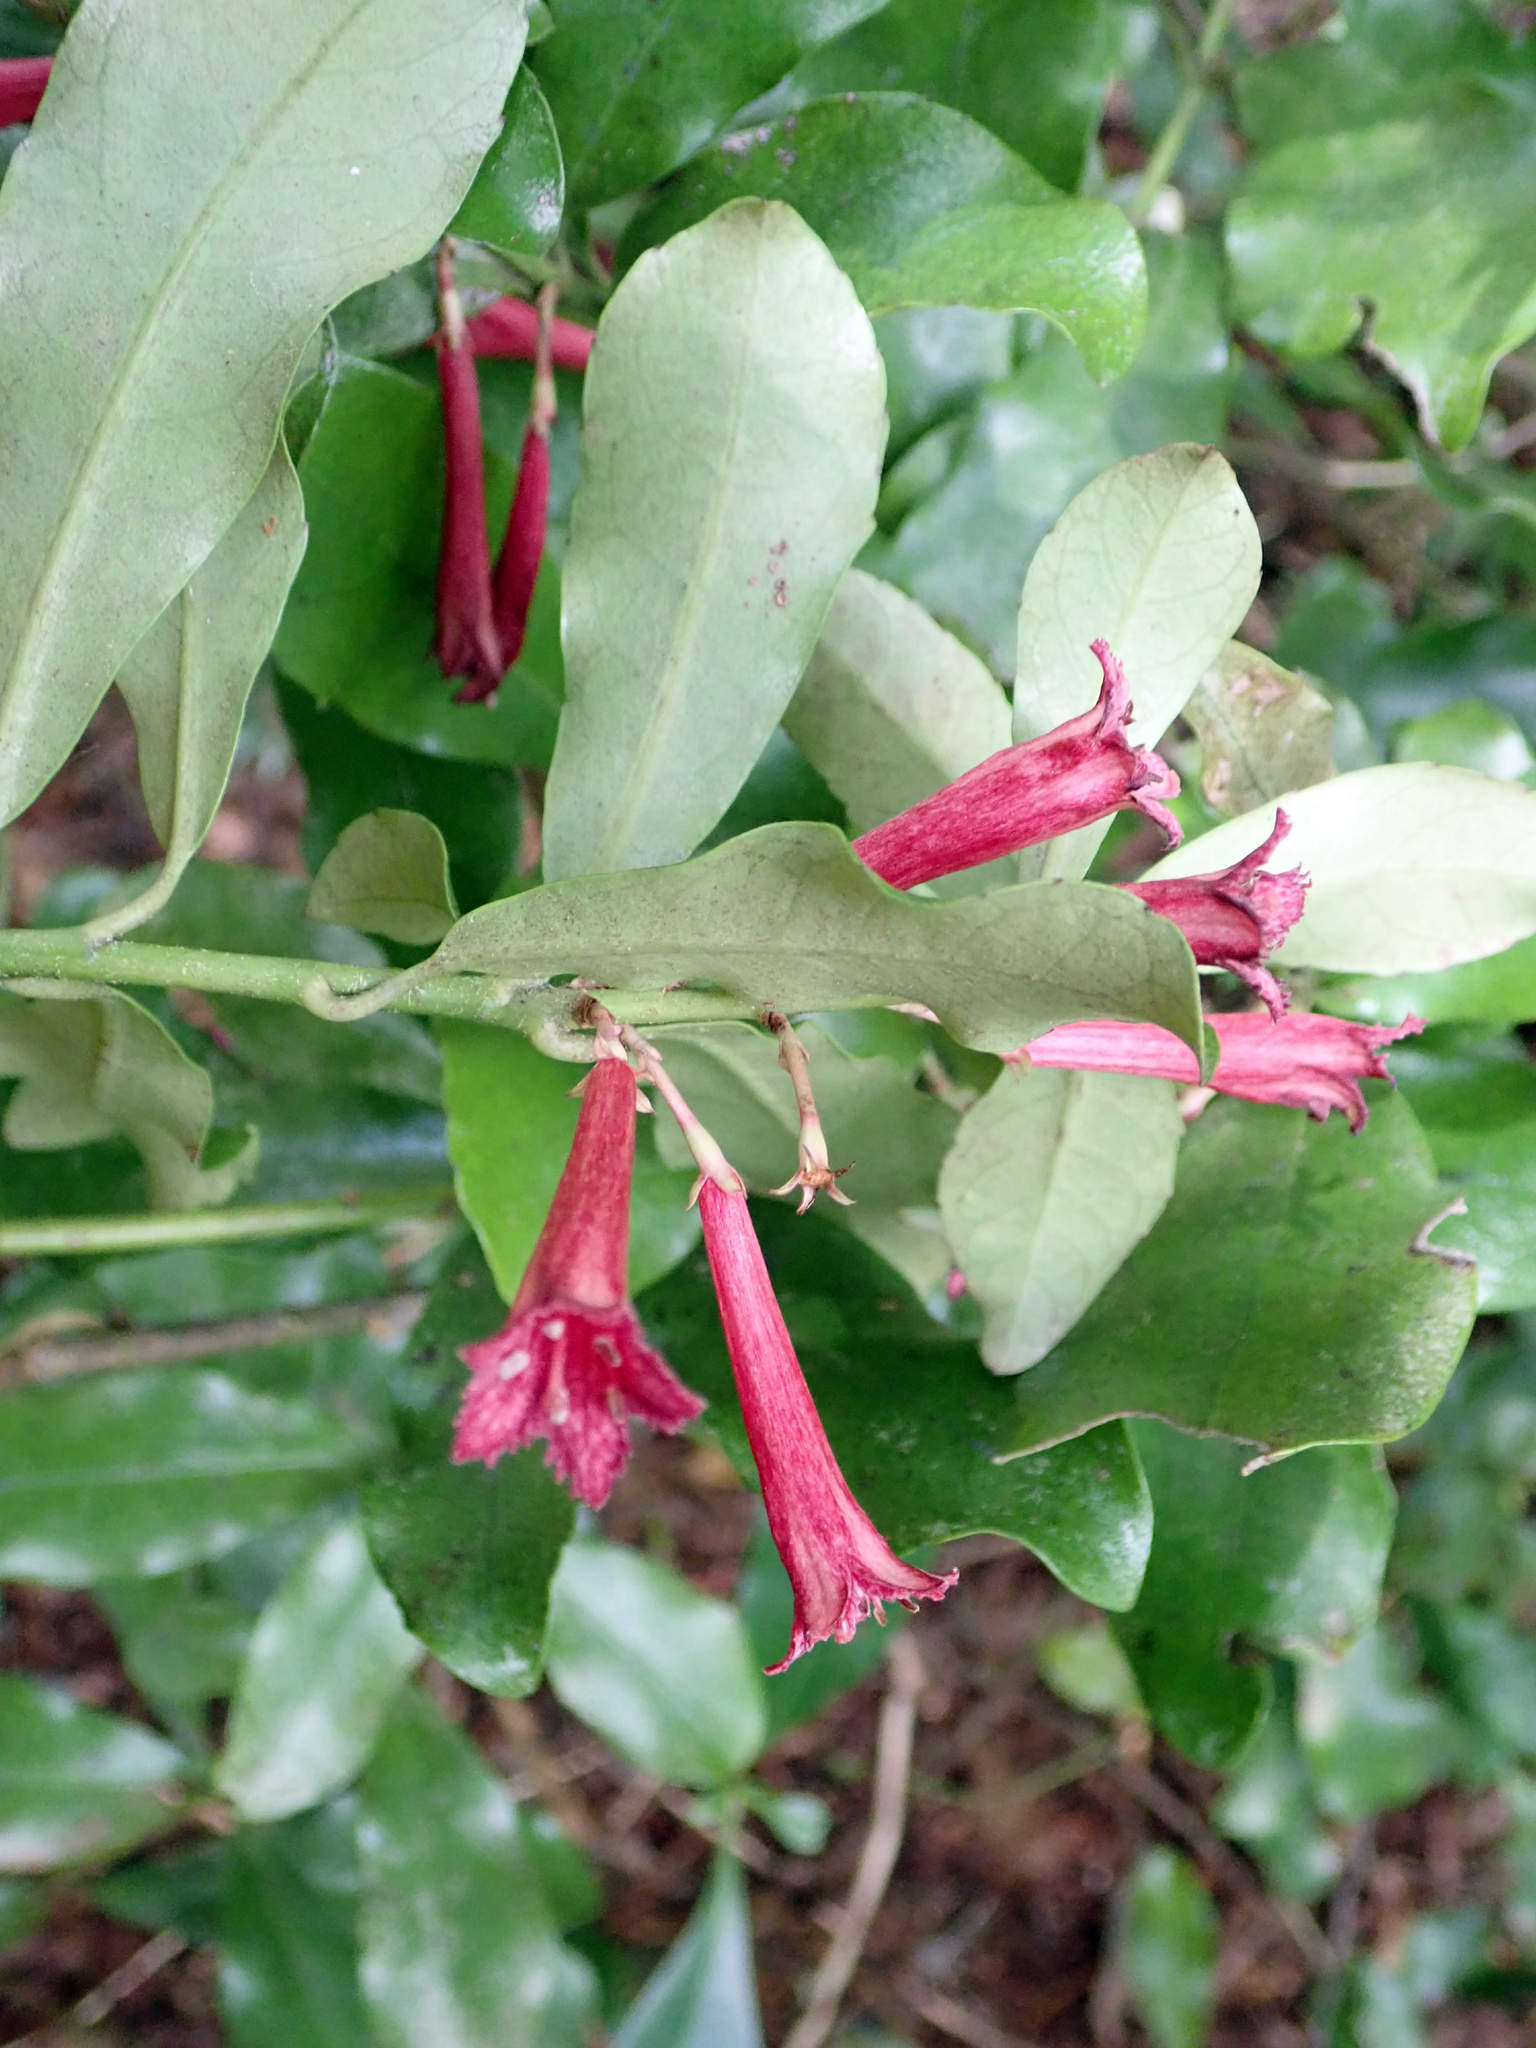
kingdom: Plantae
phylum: Tracheophyta
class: Magnoliopsida
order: Asterales
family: Alseuosmiaceae
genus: Alseuosmia
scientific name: Alseuosmia macrophylla
